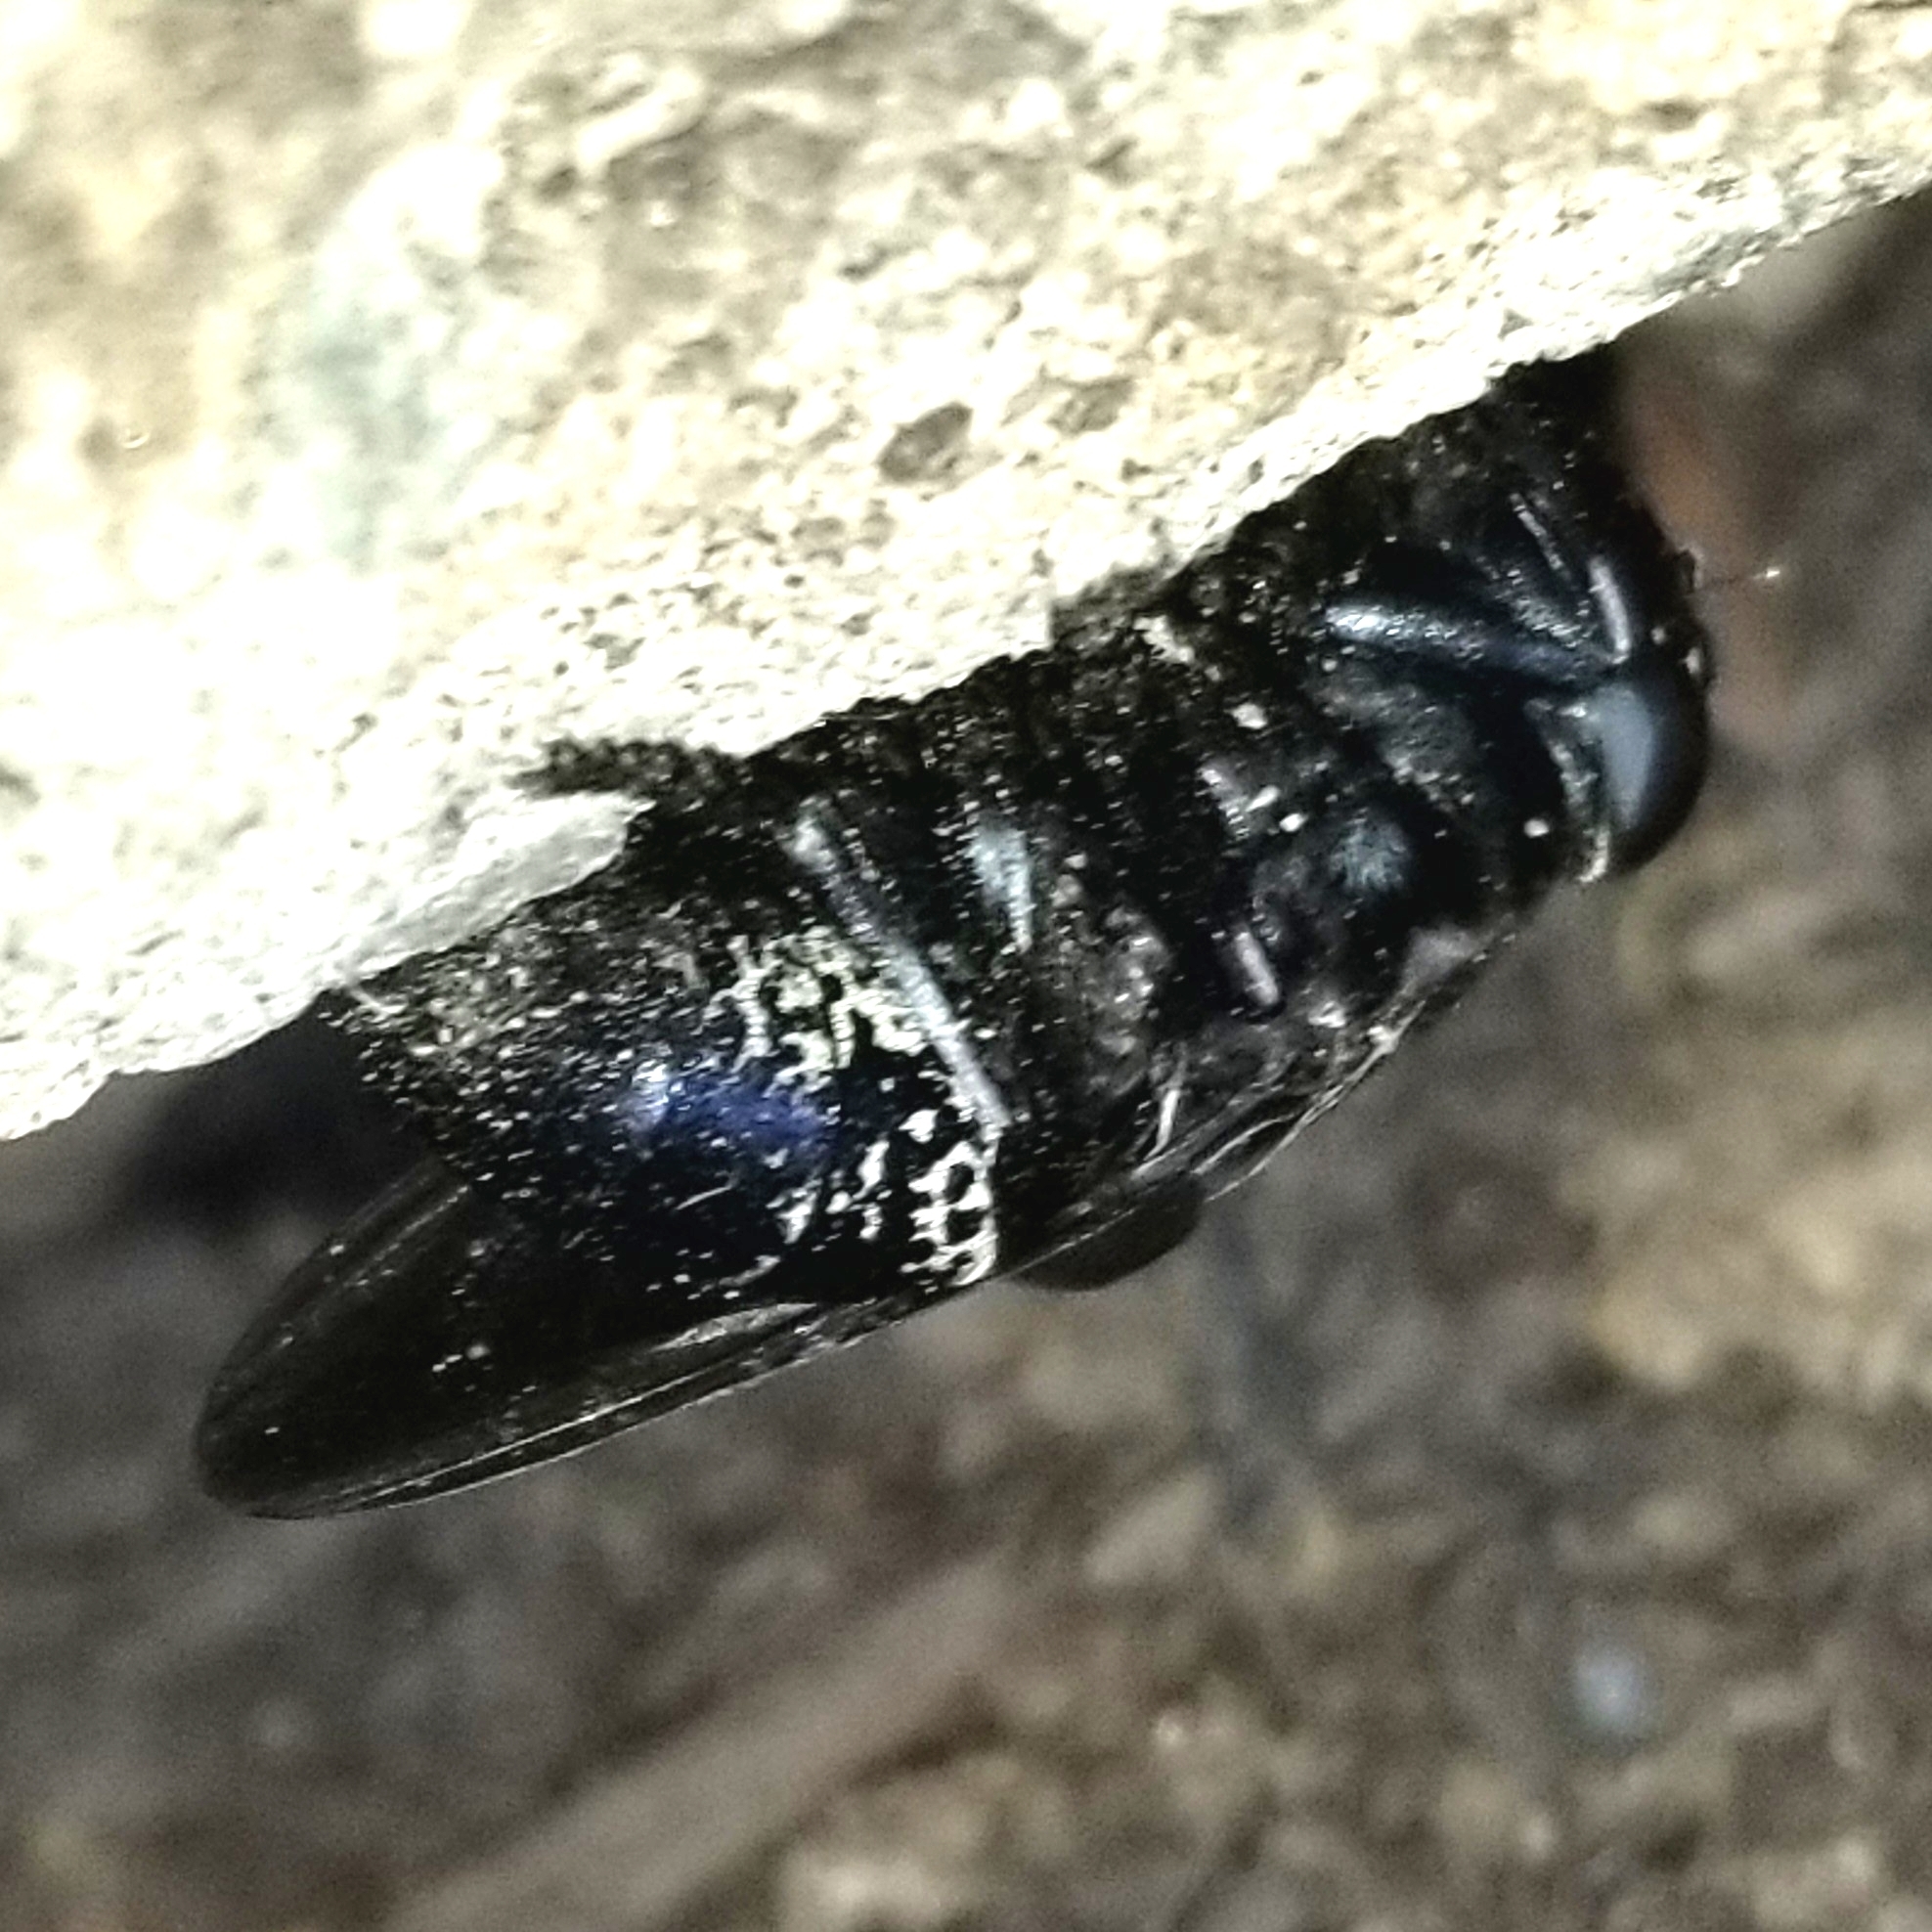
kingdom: Animalia
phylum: Arthropoda
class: Insecta
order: Diptera
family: Oestridae
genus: Cuterebra
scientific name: Cuterebra approximata
